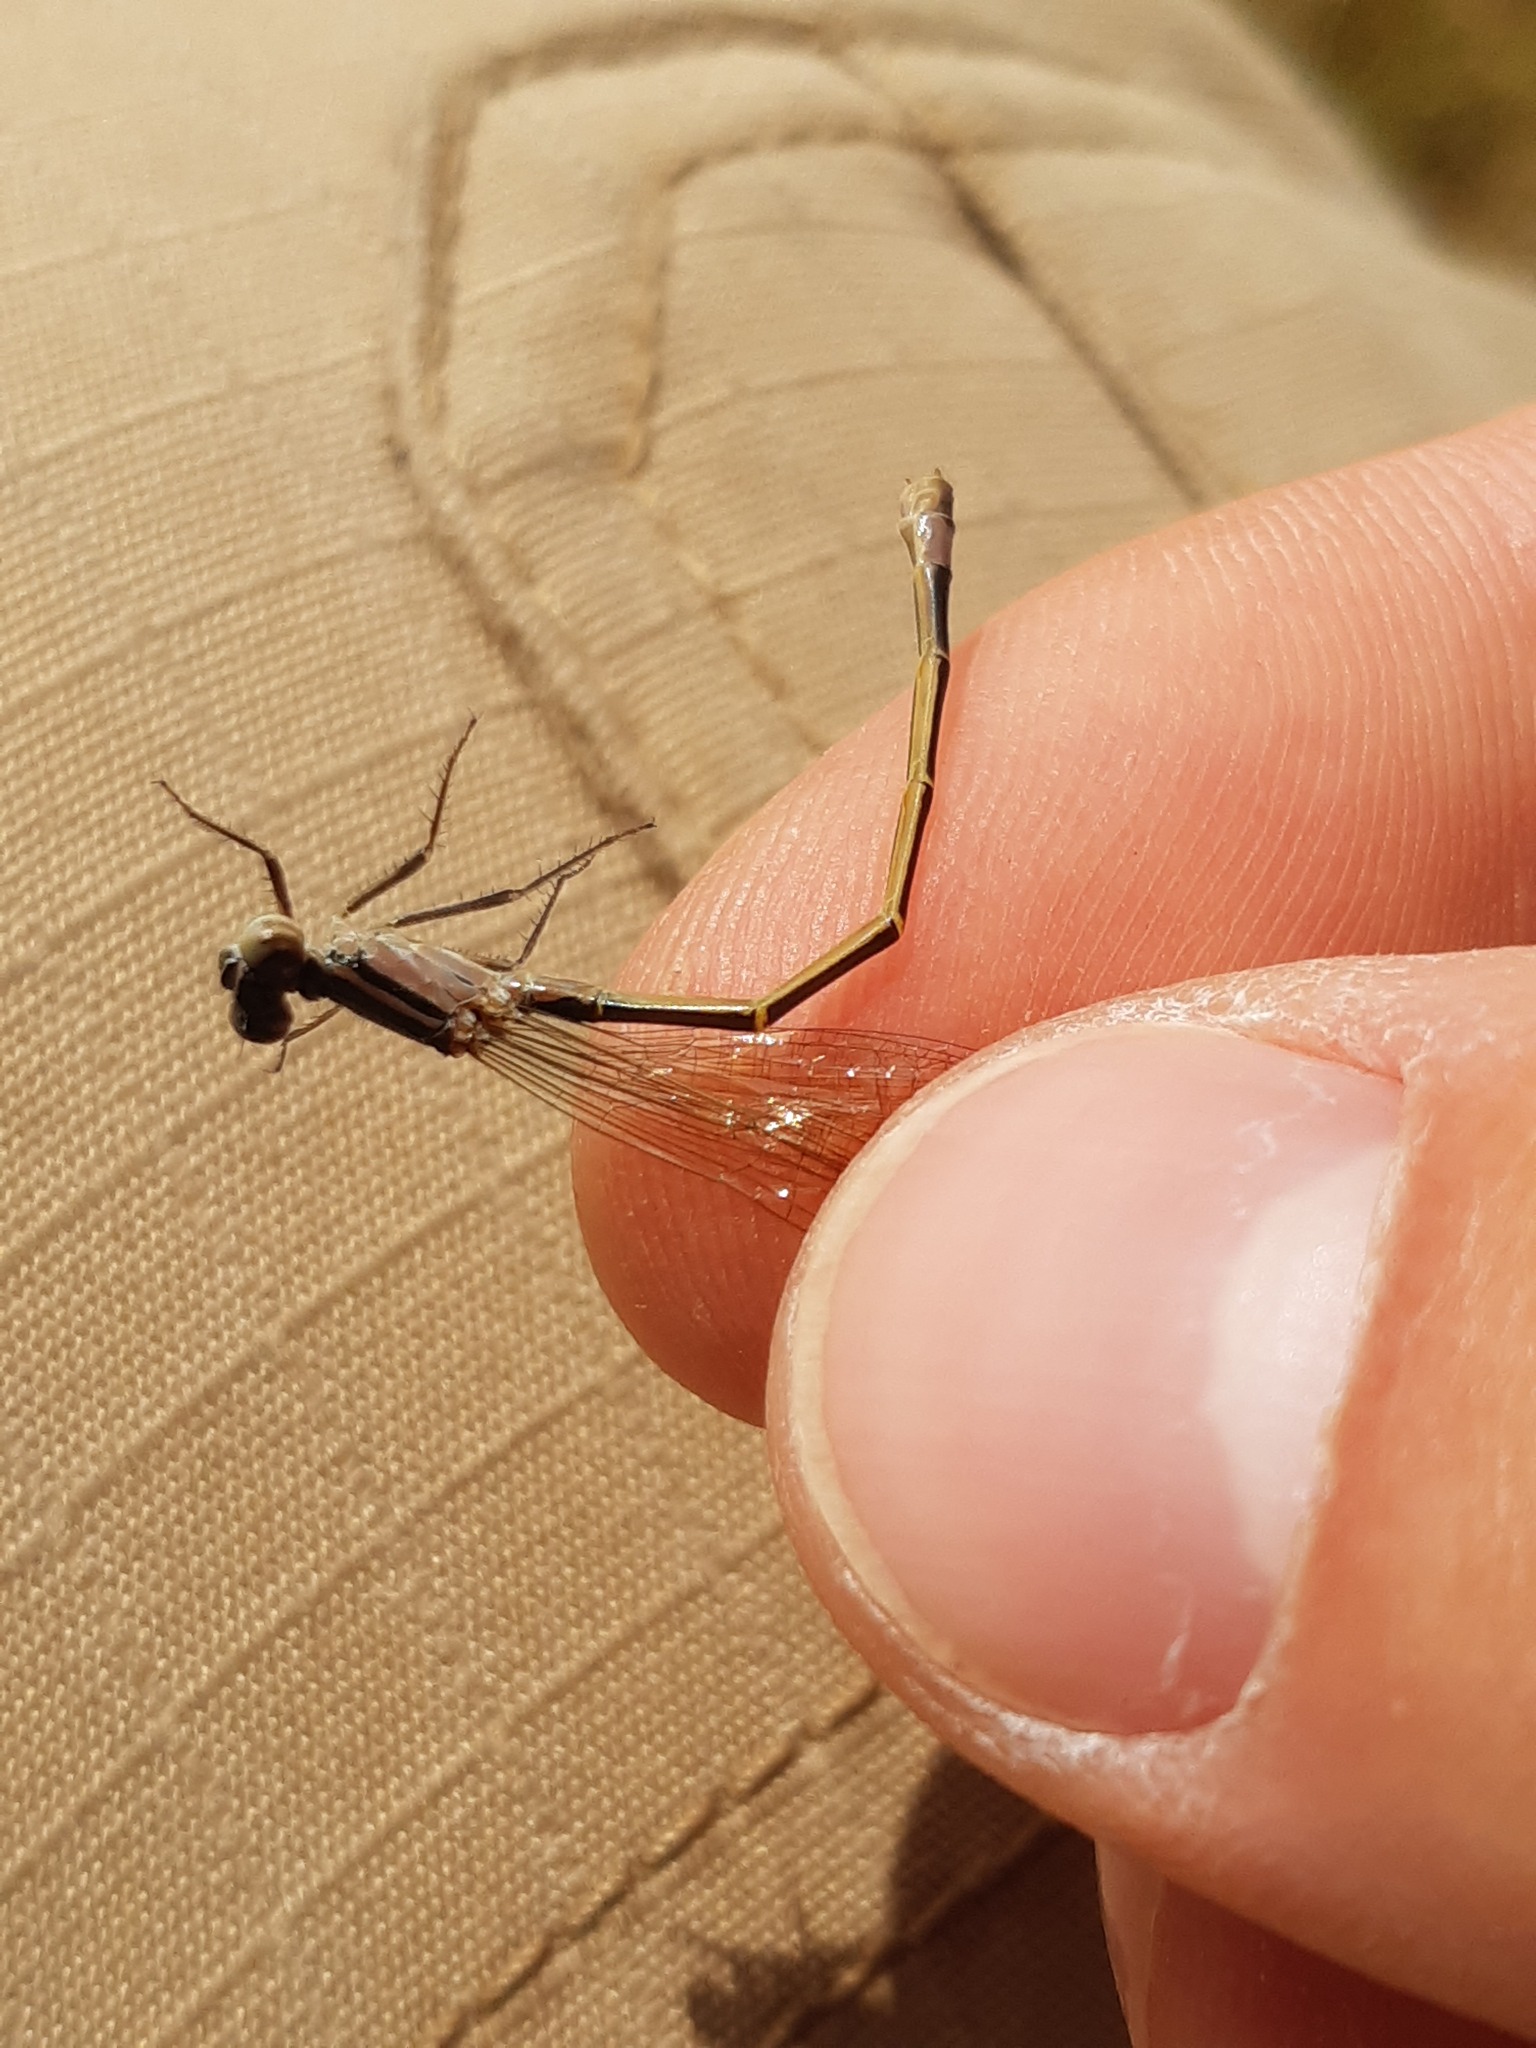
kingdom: Animalia
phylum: Arthropoda
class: Insecta
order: Odonata
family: Coenagrionidae
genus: Ischnura
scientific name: Ischnura elegans
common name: Blue-tailed damselfly
